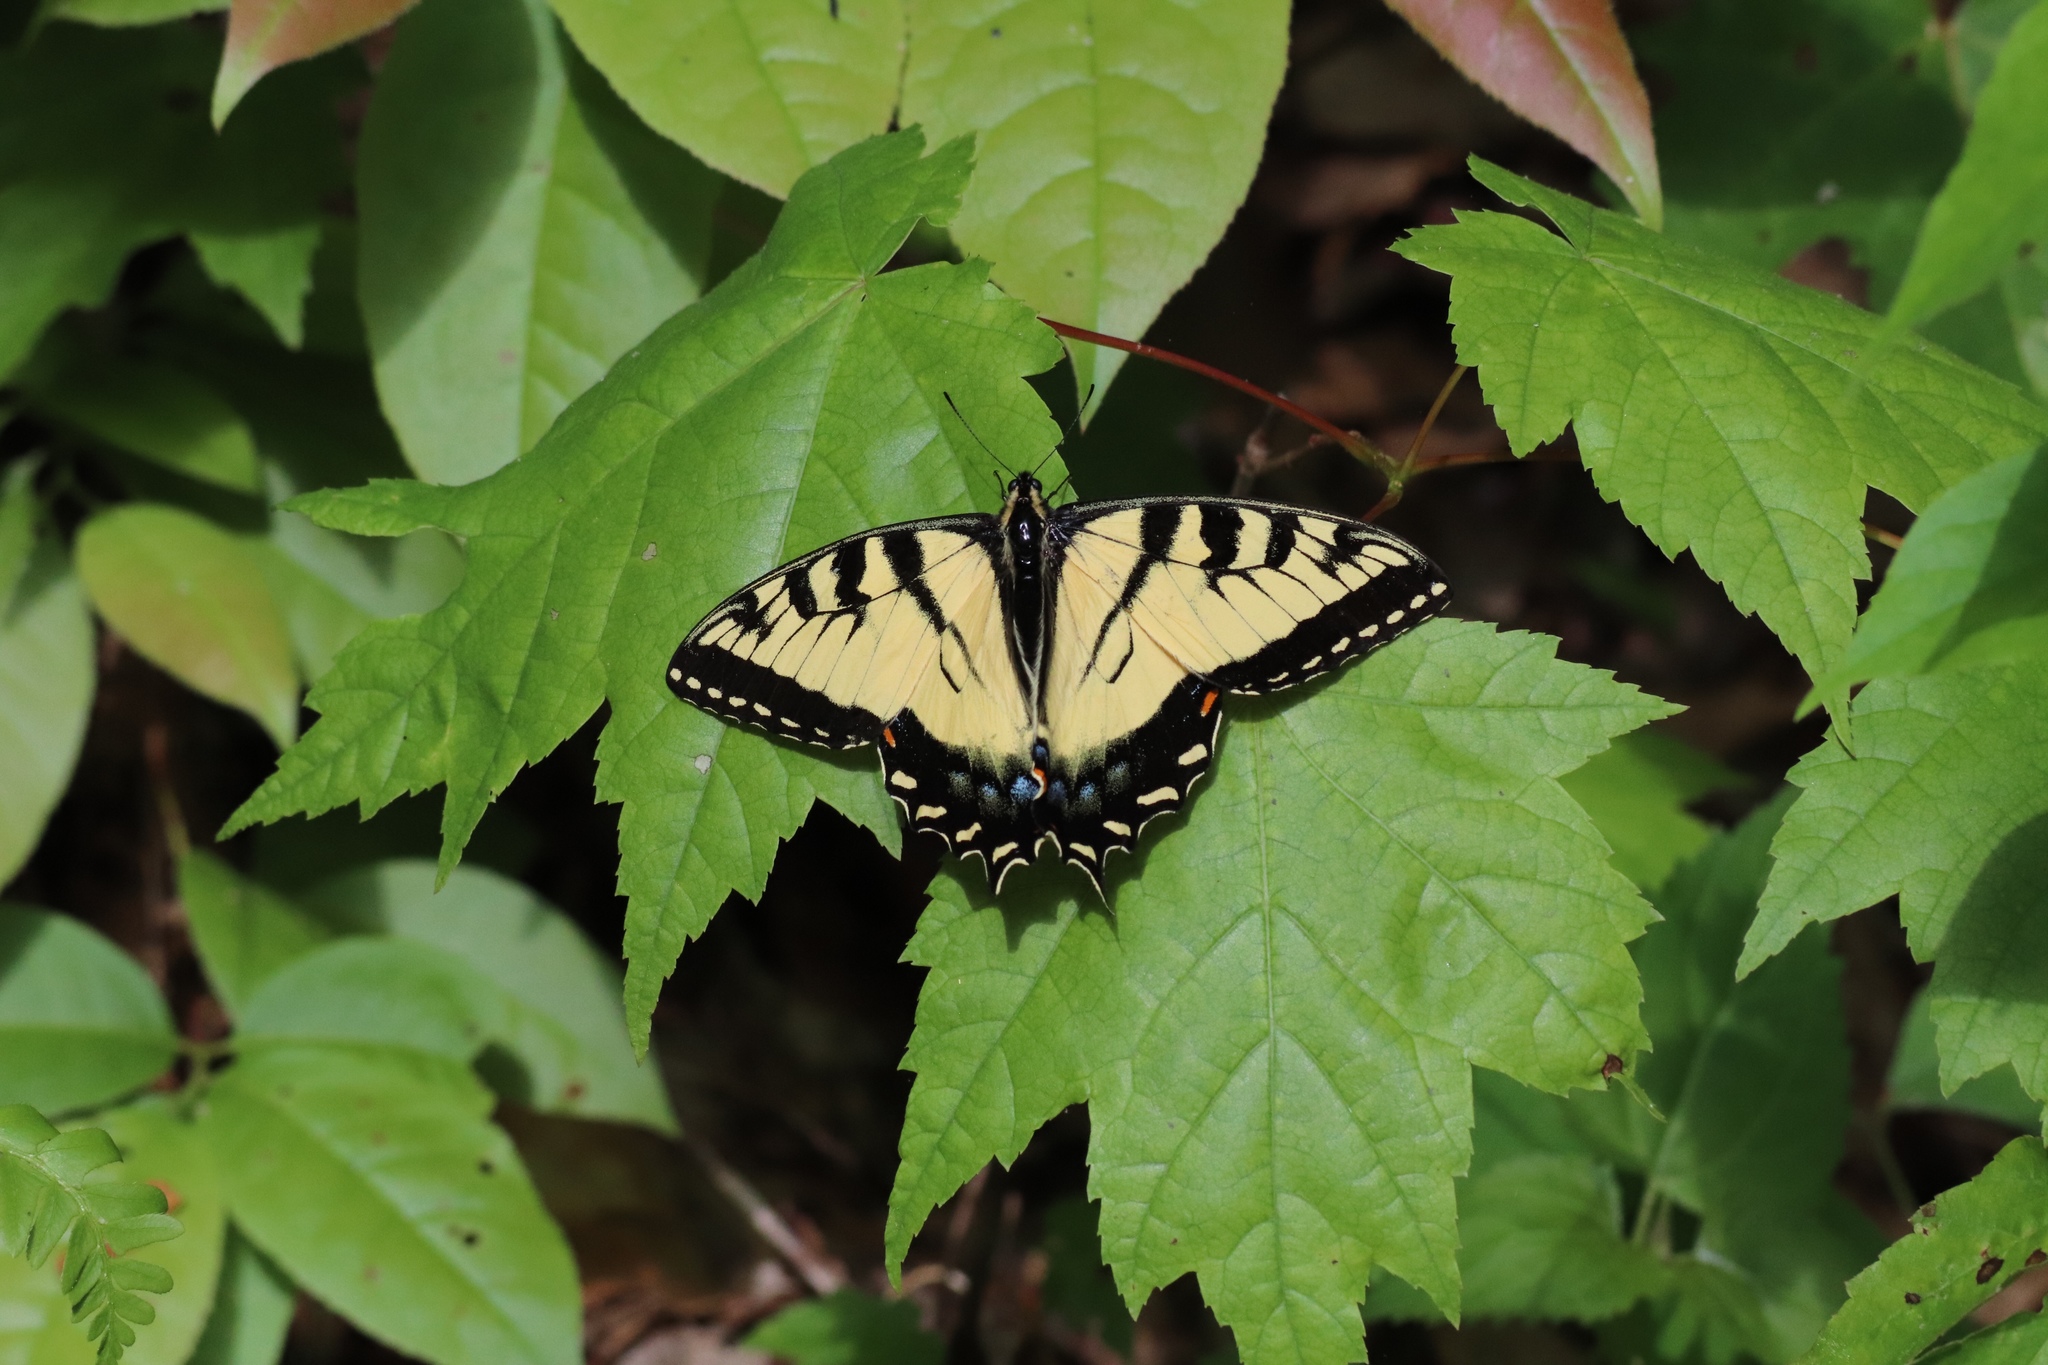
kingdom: Animalia
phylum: Arthropoda
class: Insecta
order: Lepidoptera
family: Papilionidae
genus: Papilio
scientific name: Papilio glaucus
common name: Tiger swallowtail
